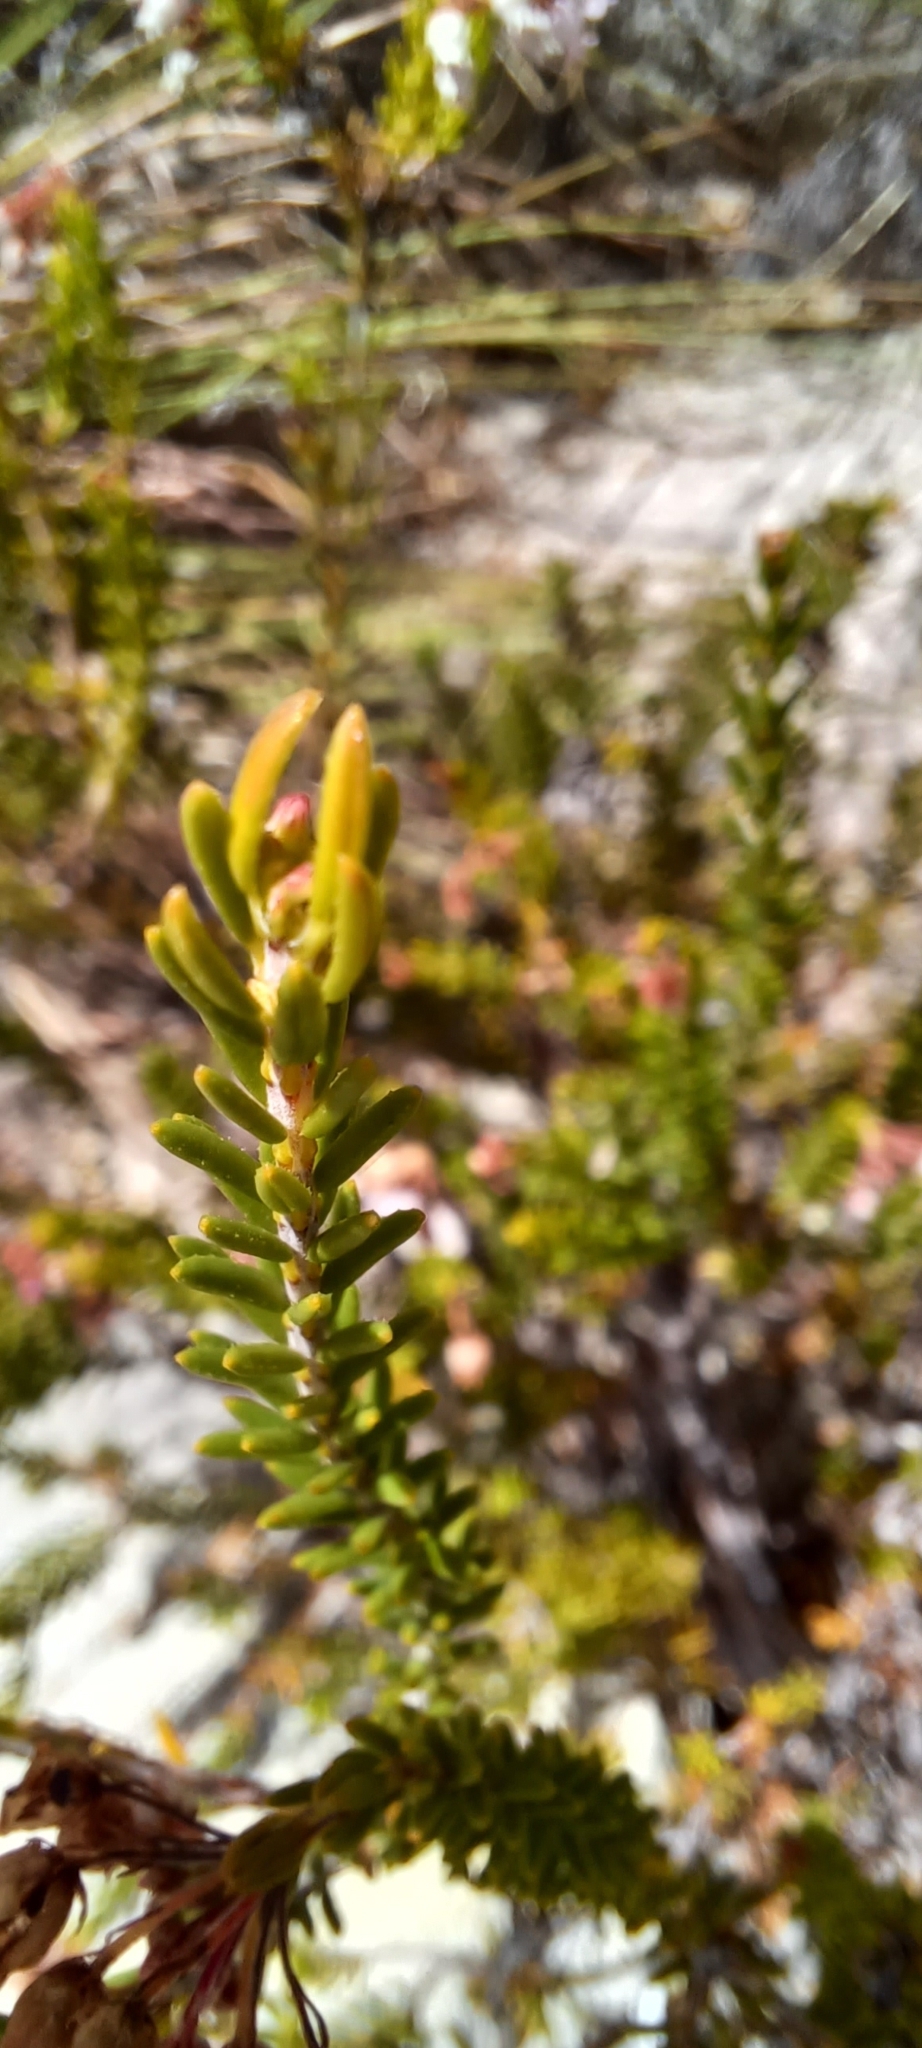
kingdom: Plantae
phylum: Tracheophyta
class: Magnoliopsida
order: Ericales
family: Ericaceae
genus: Erica
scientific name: Erica verecunda
